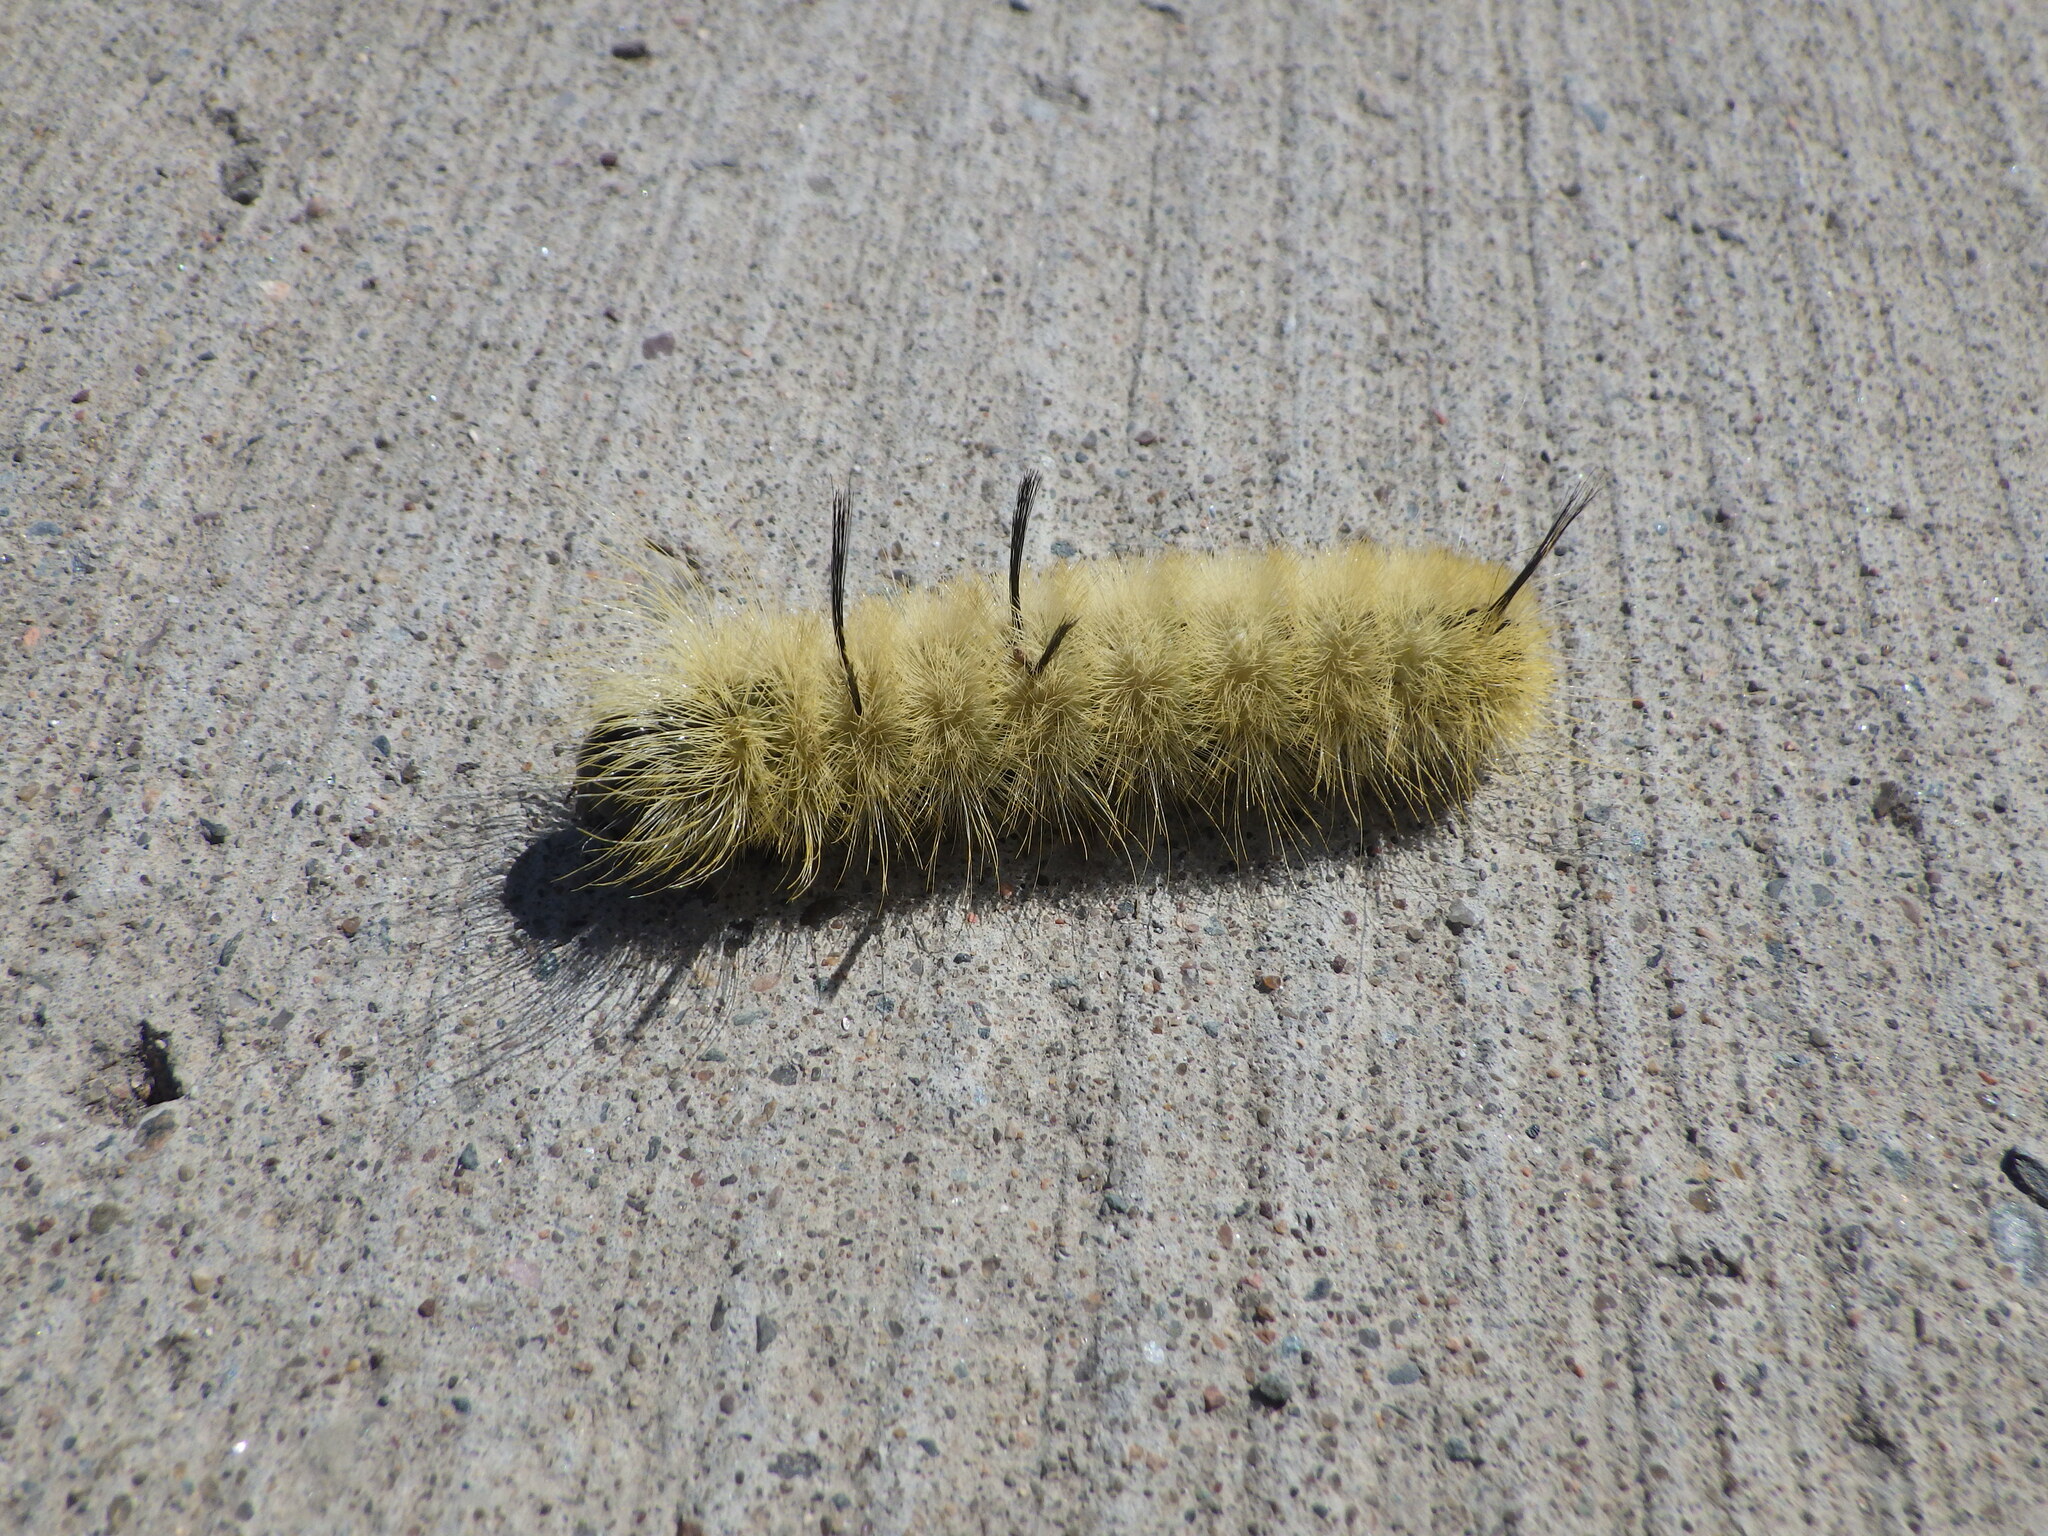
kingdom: Animalia
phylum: Arthropoda
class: Insecta
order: Lepidoptera
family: Noctuidae
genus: Acronicta
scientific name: Acronicta americana
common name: American dagger
